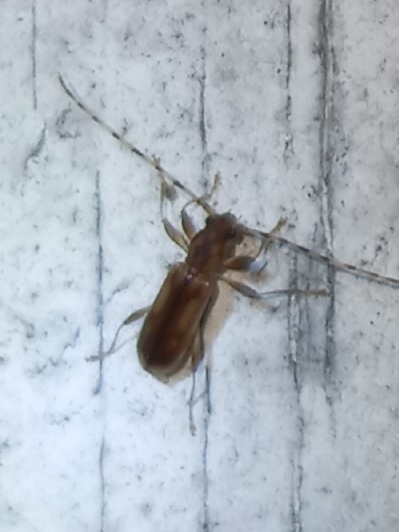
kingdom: Animalia
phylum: Arthropoda
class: Insecta
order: Coleoptera
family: Cerambycidae
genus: Curius
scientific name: Curius dentatus
